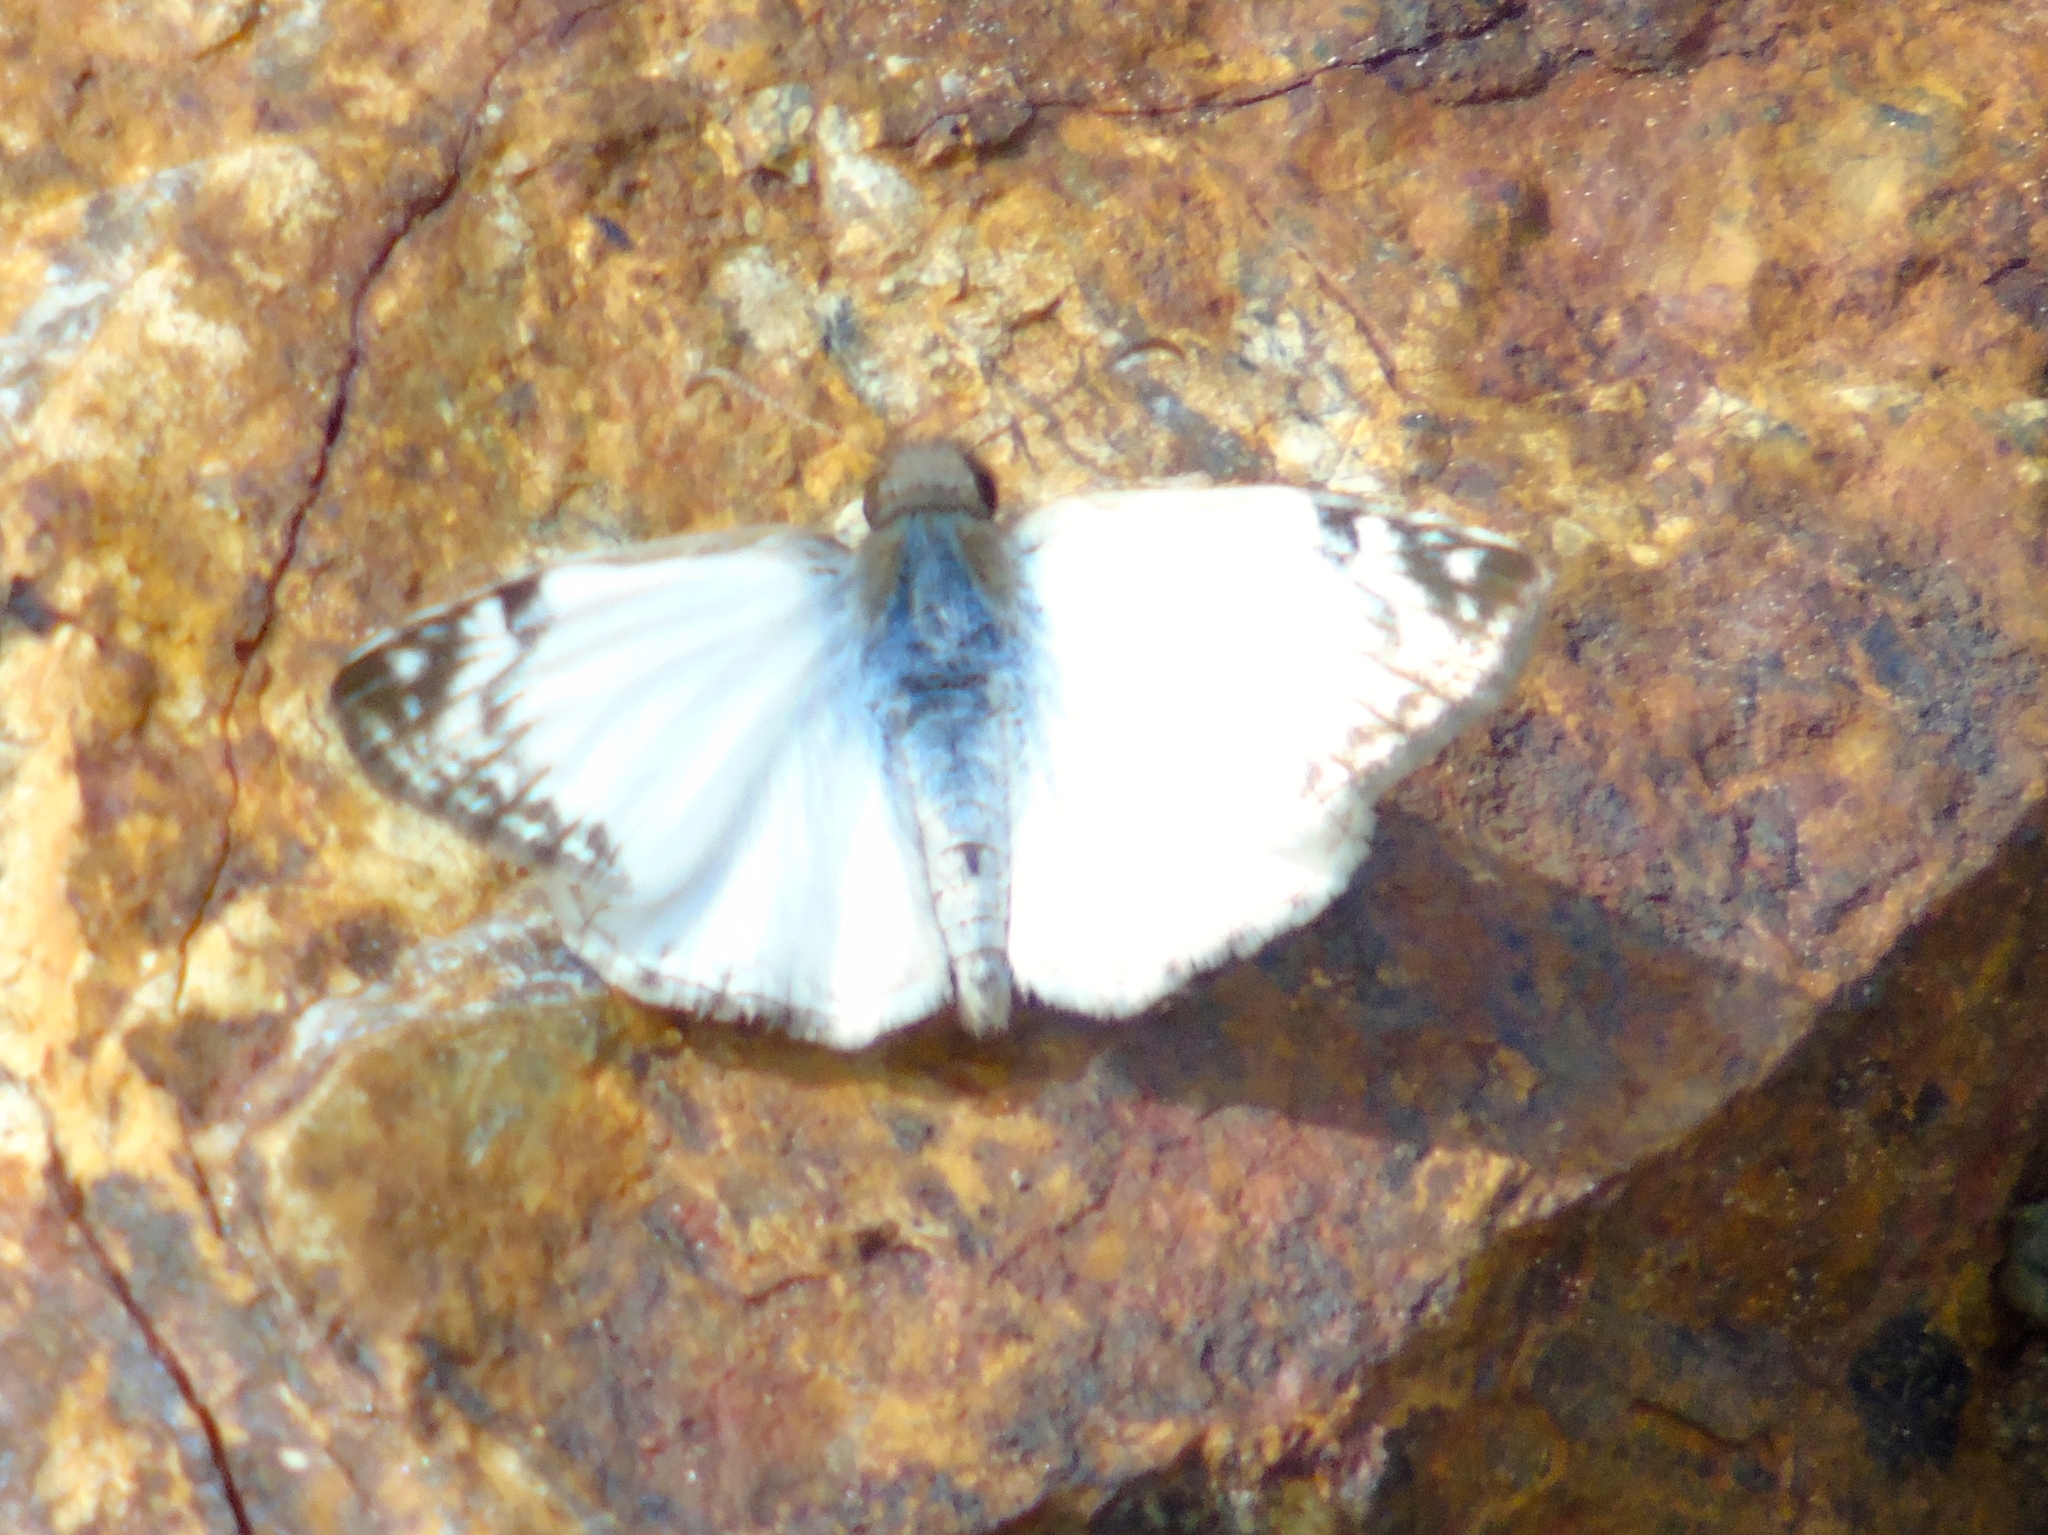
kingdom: Animalia
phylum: Arthropoda
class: Insecta
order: Lepidoptera
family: Hesperiidae
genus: Heliopetes
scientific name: Heliopetes laviana
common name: Laviana white-skipper
